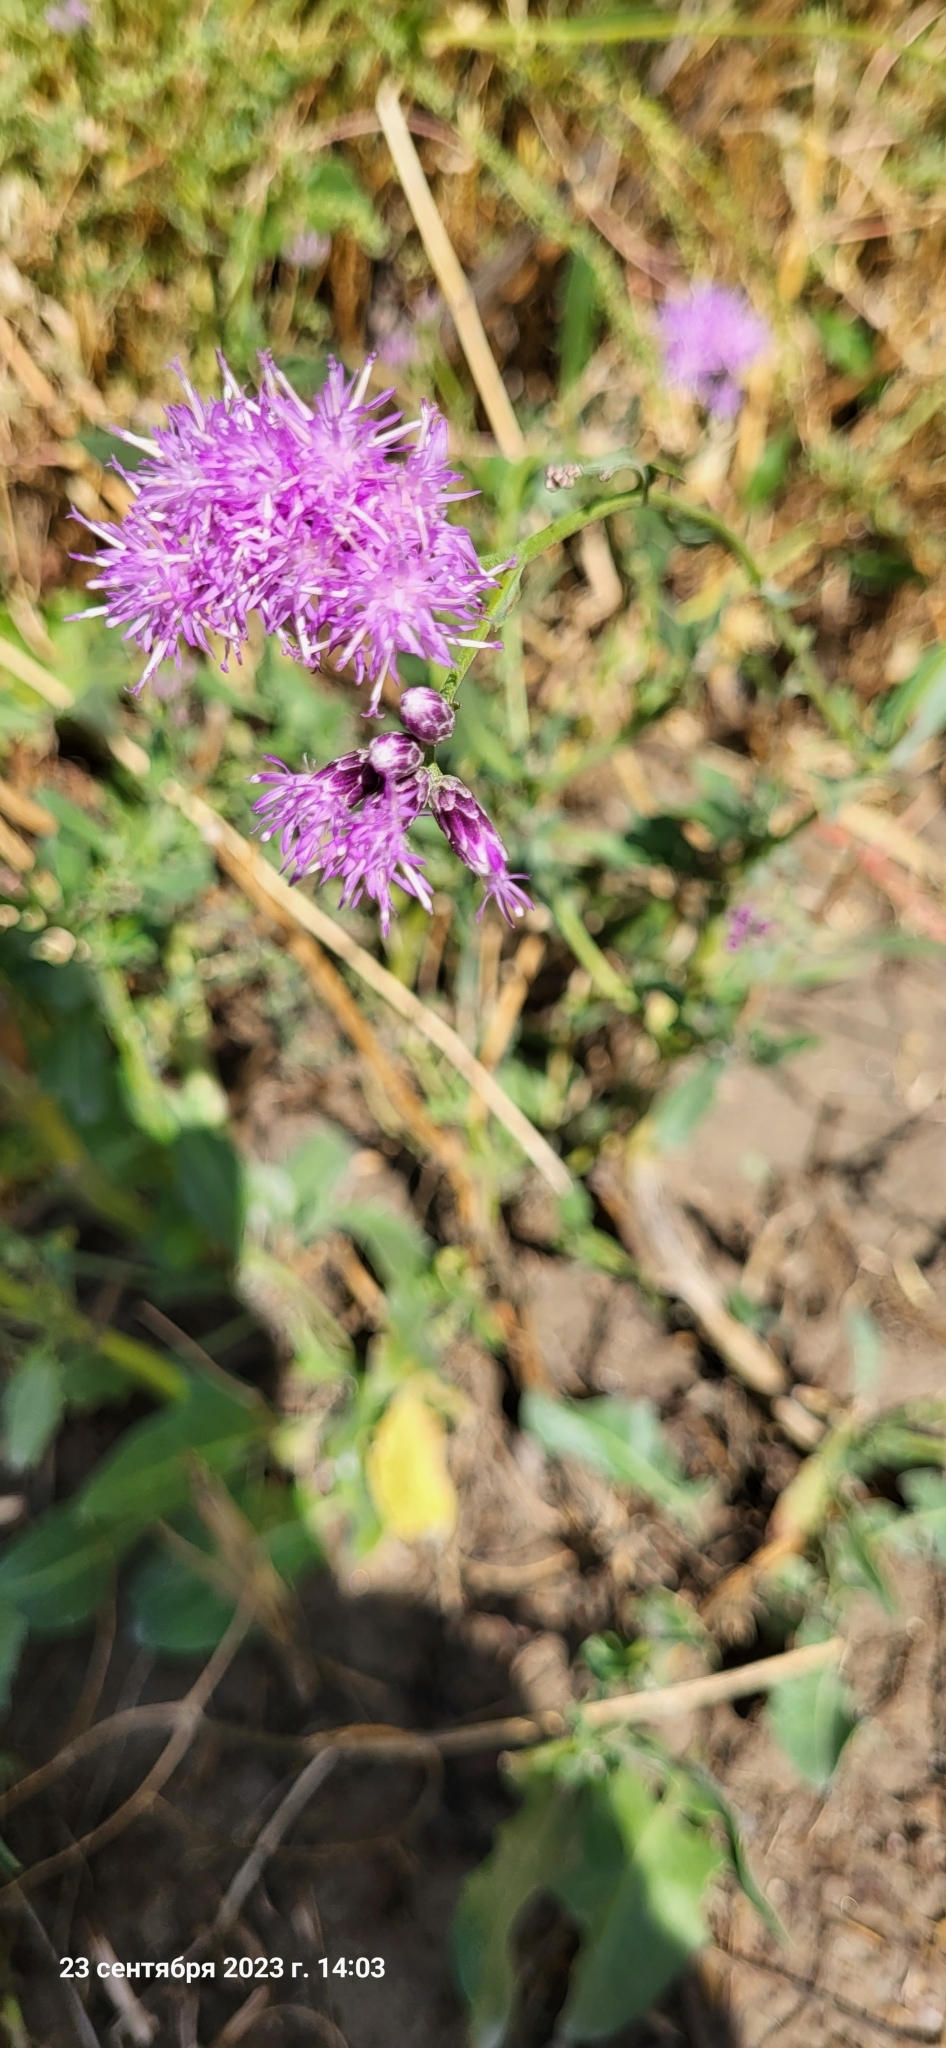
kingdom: Plantae
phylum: Tracheophyta
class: Magnoliopsida
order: Asterales
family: Asteraceae
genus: Saussurea
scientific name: Saussurea salsa
